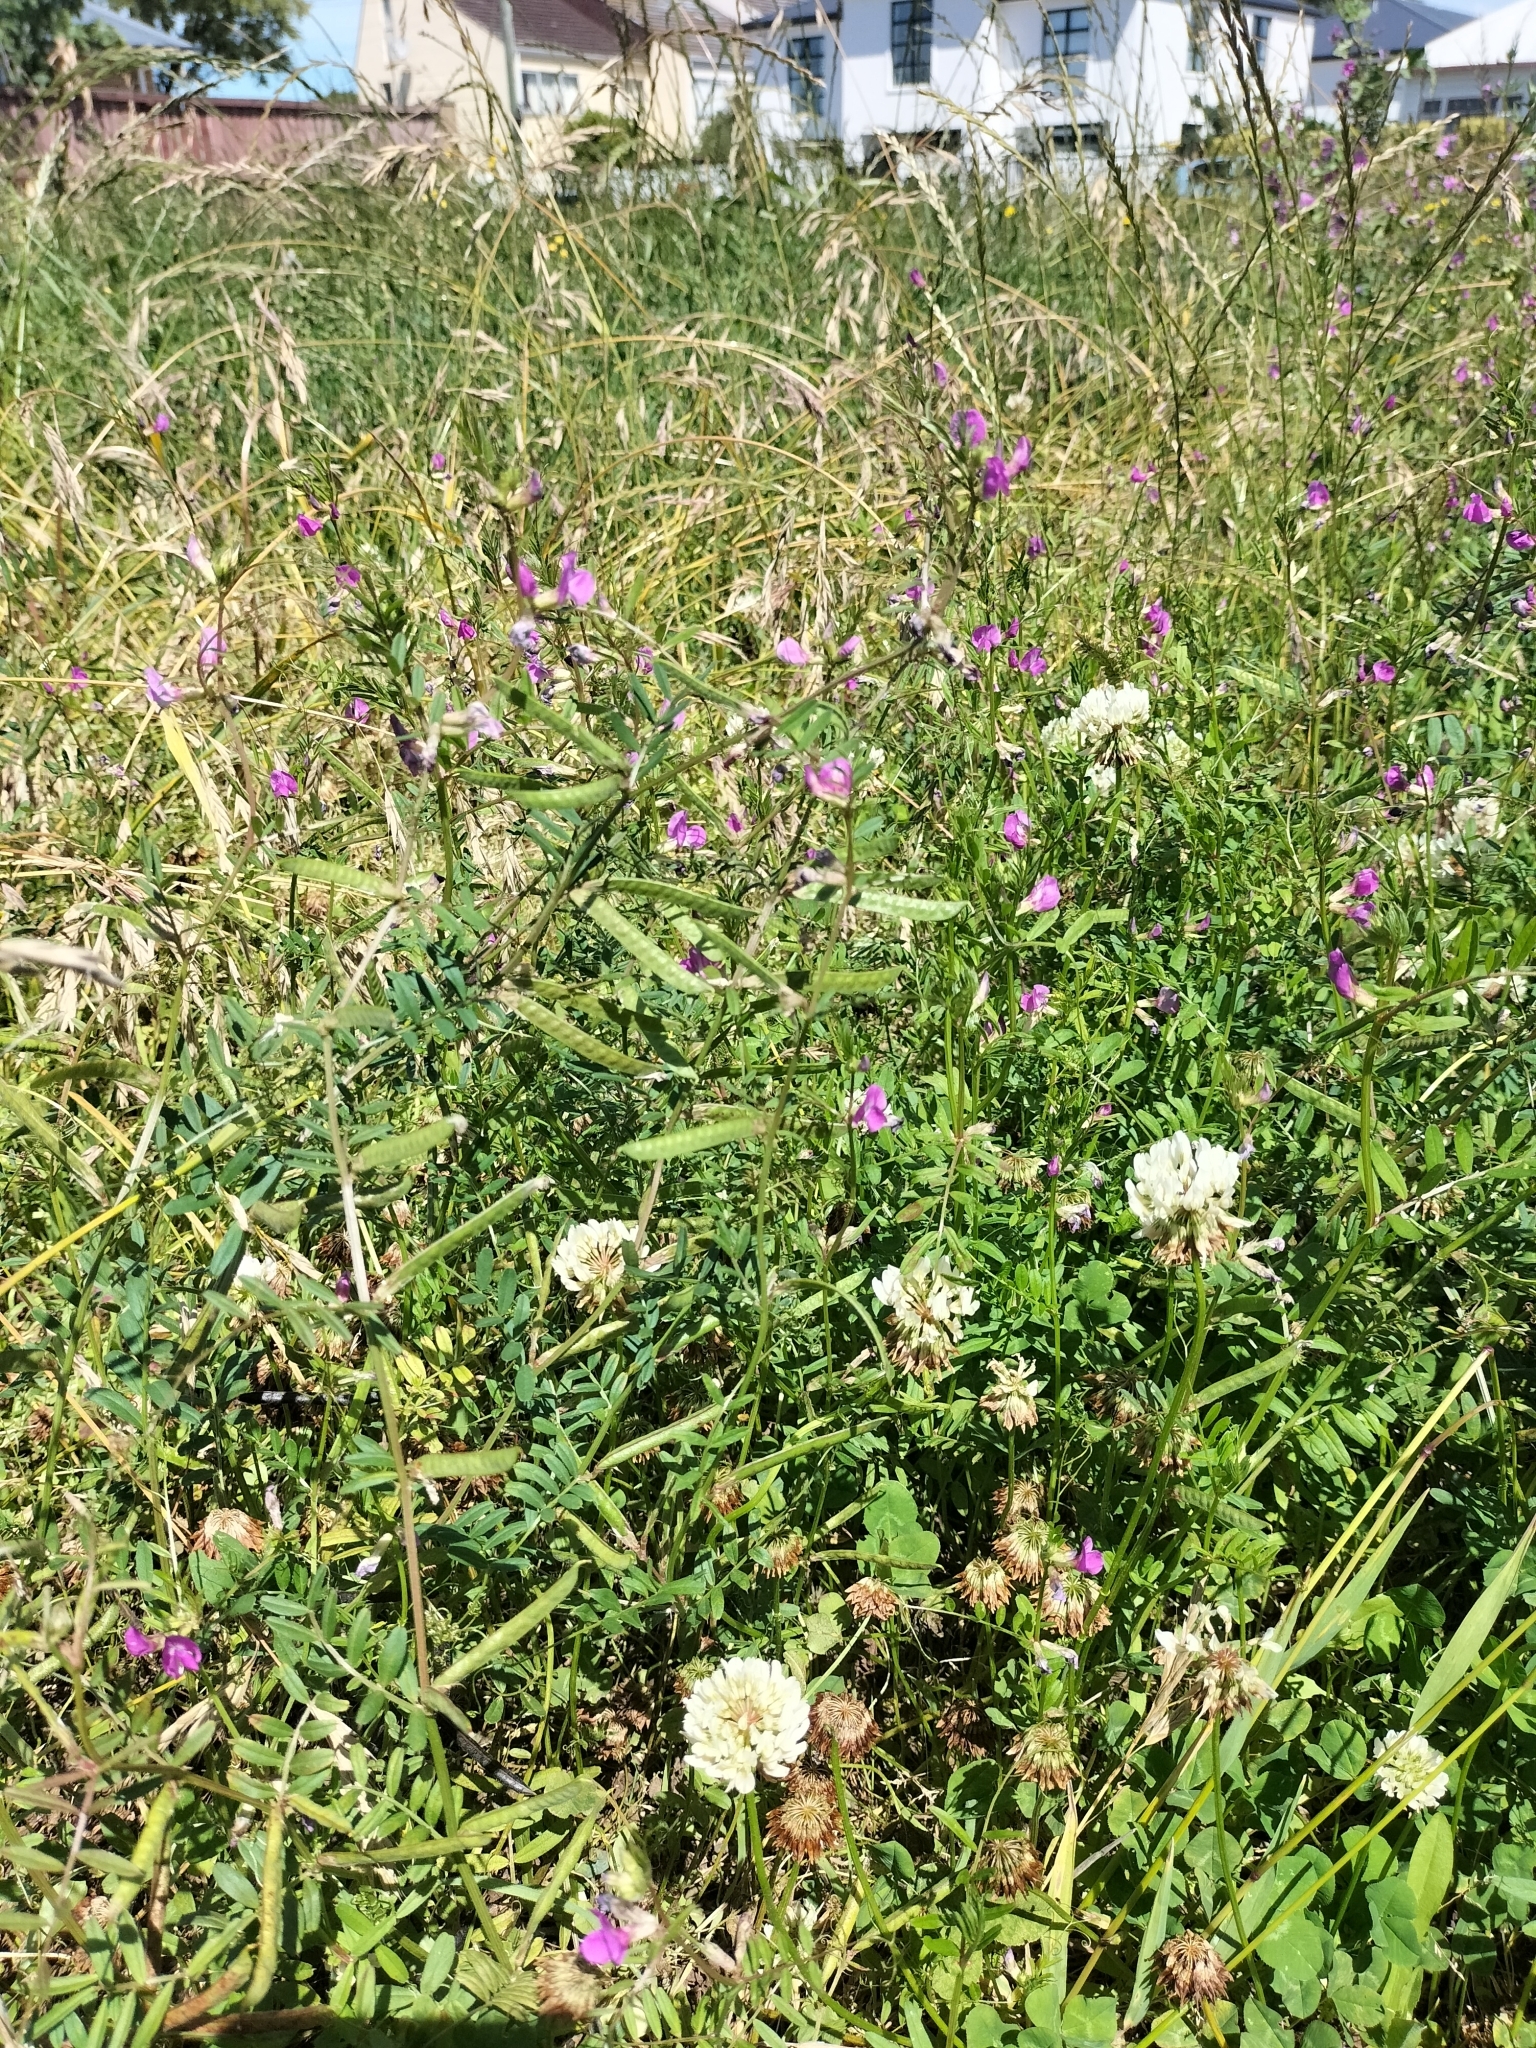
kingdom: Plantae
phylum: Tracheophyta
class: Magnoliopsida
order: Fabales
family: Fabaceae
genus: Vicia
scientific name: Vicia sativa
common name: Garden vetch
